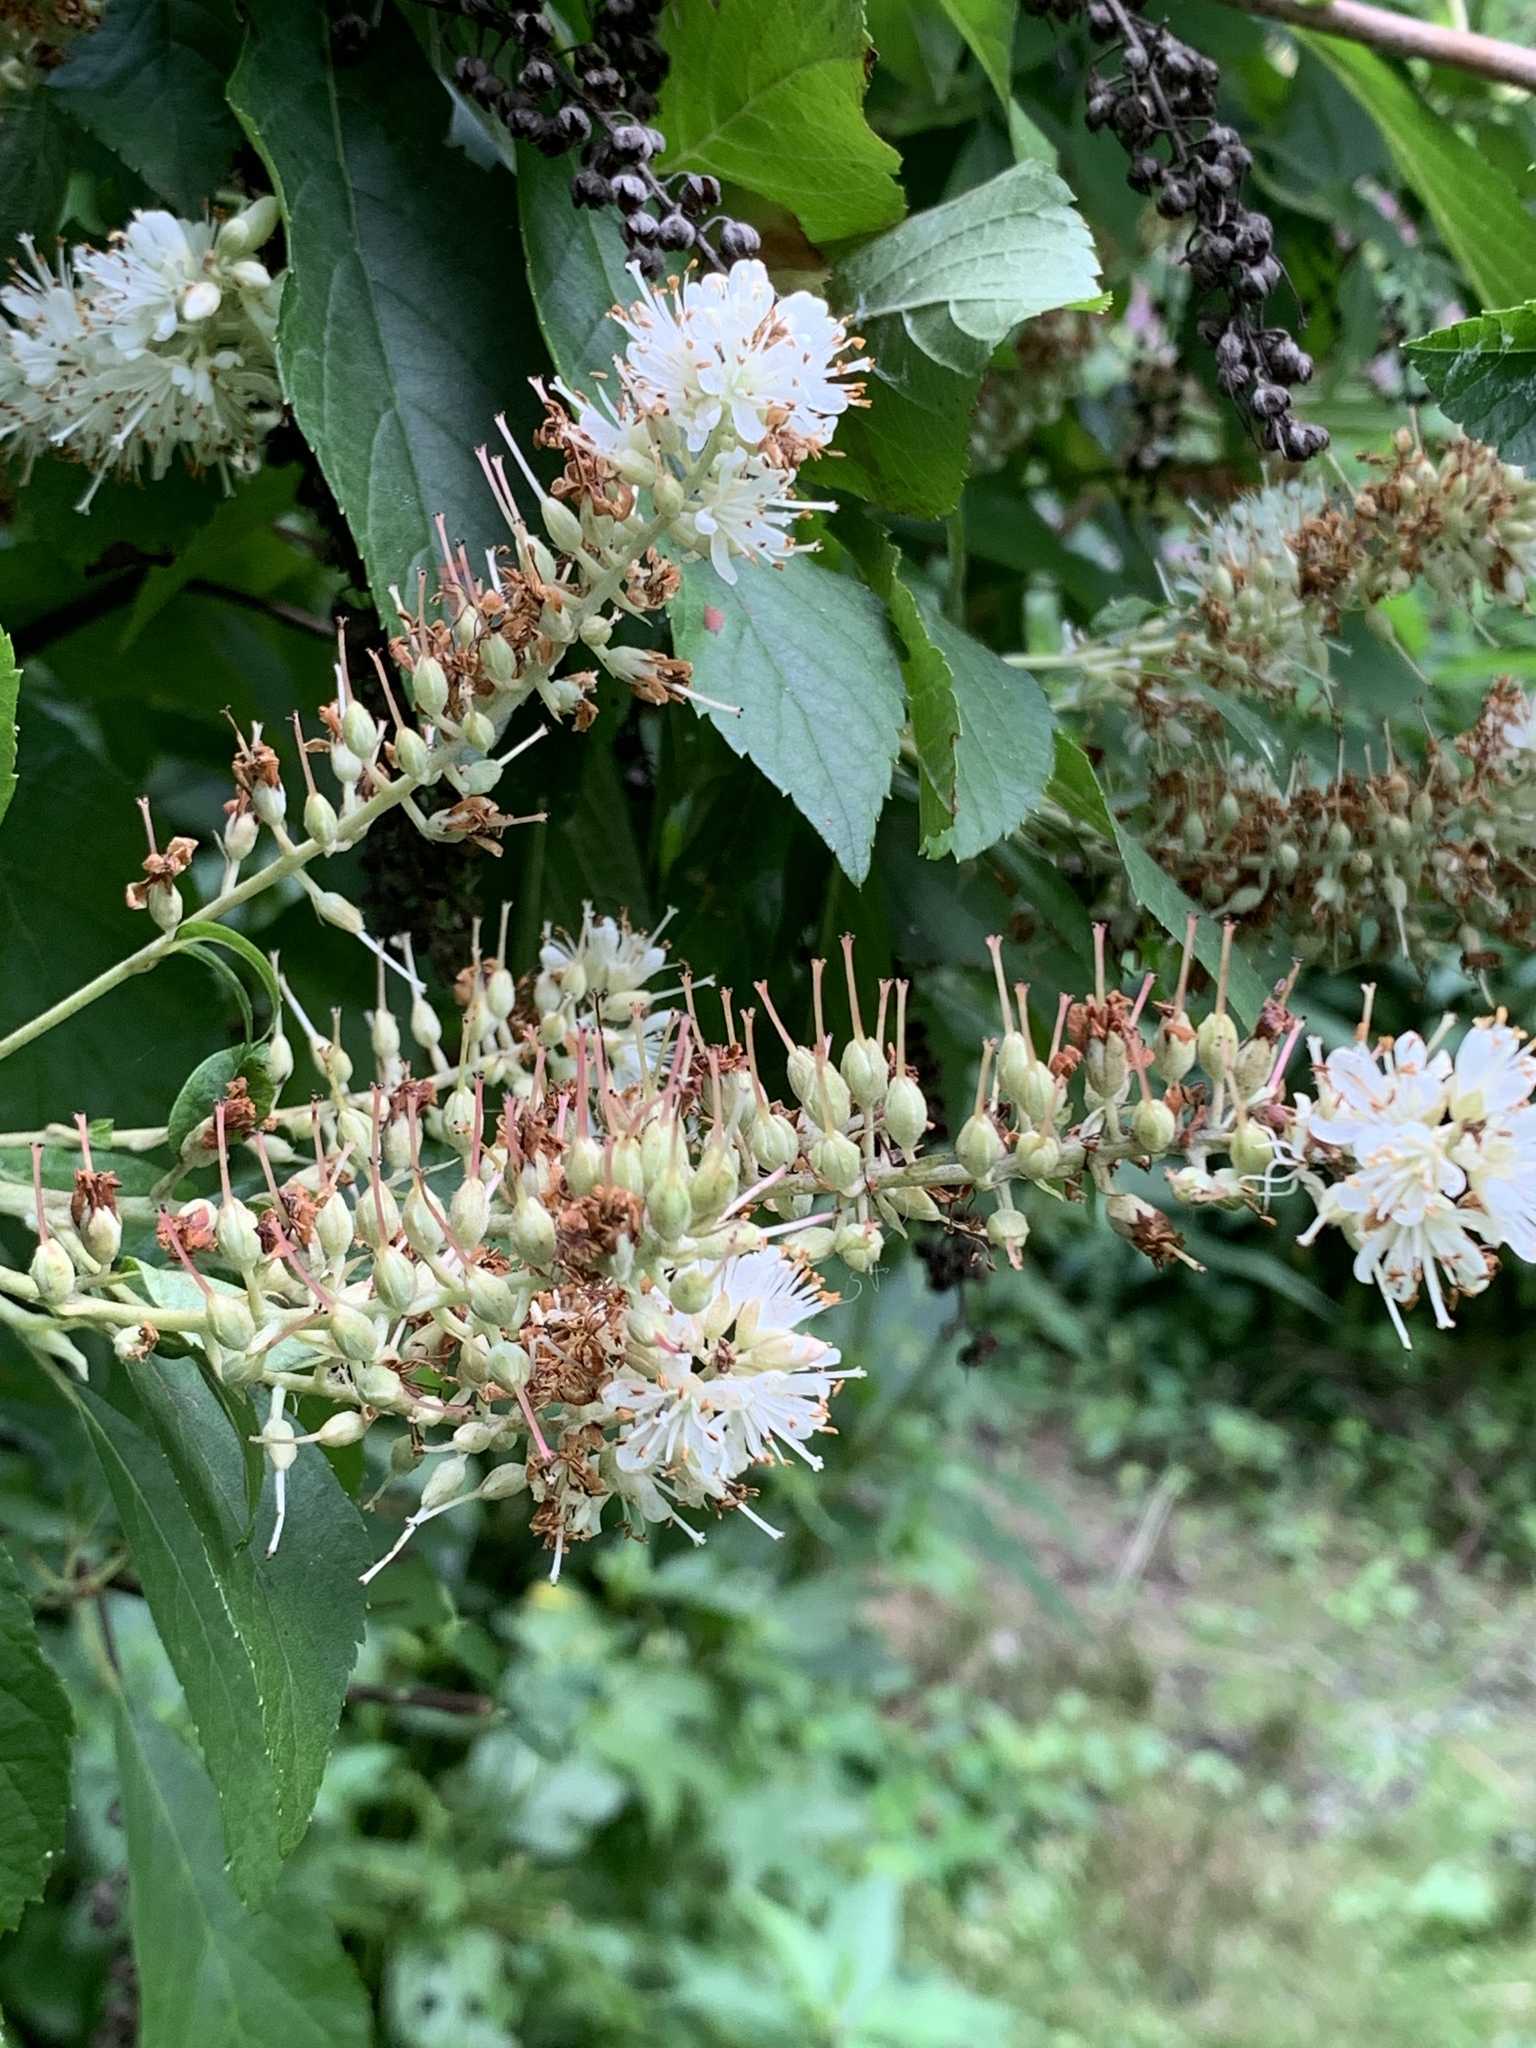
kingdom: Plantae
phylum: Tracheophyta
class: Magnoliopsida
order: Ericales
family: Clethraceae
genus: Clethra
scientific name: Clethra alnifolia
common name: Sweet pepperbush
